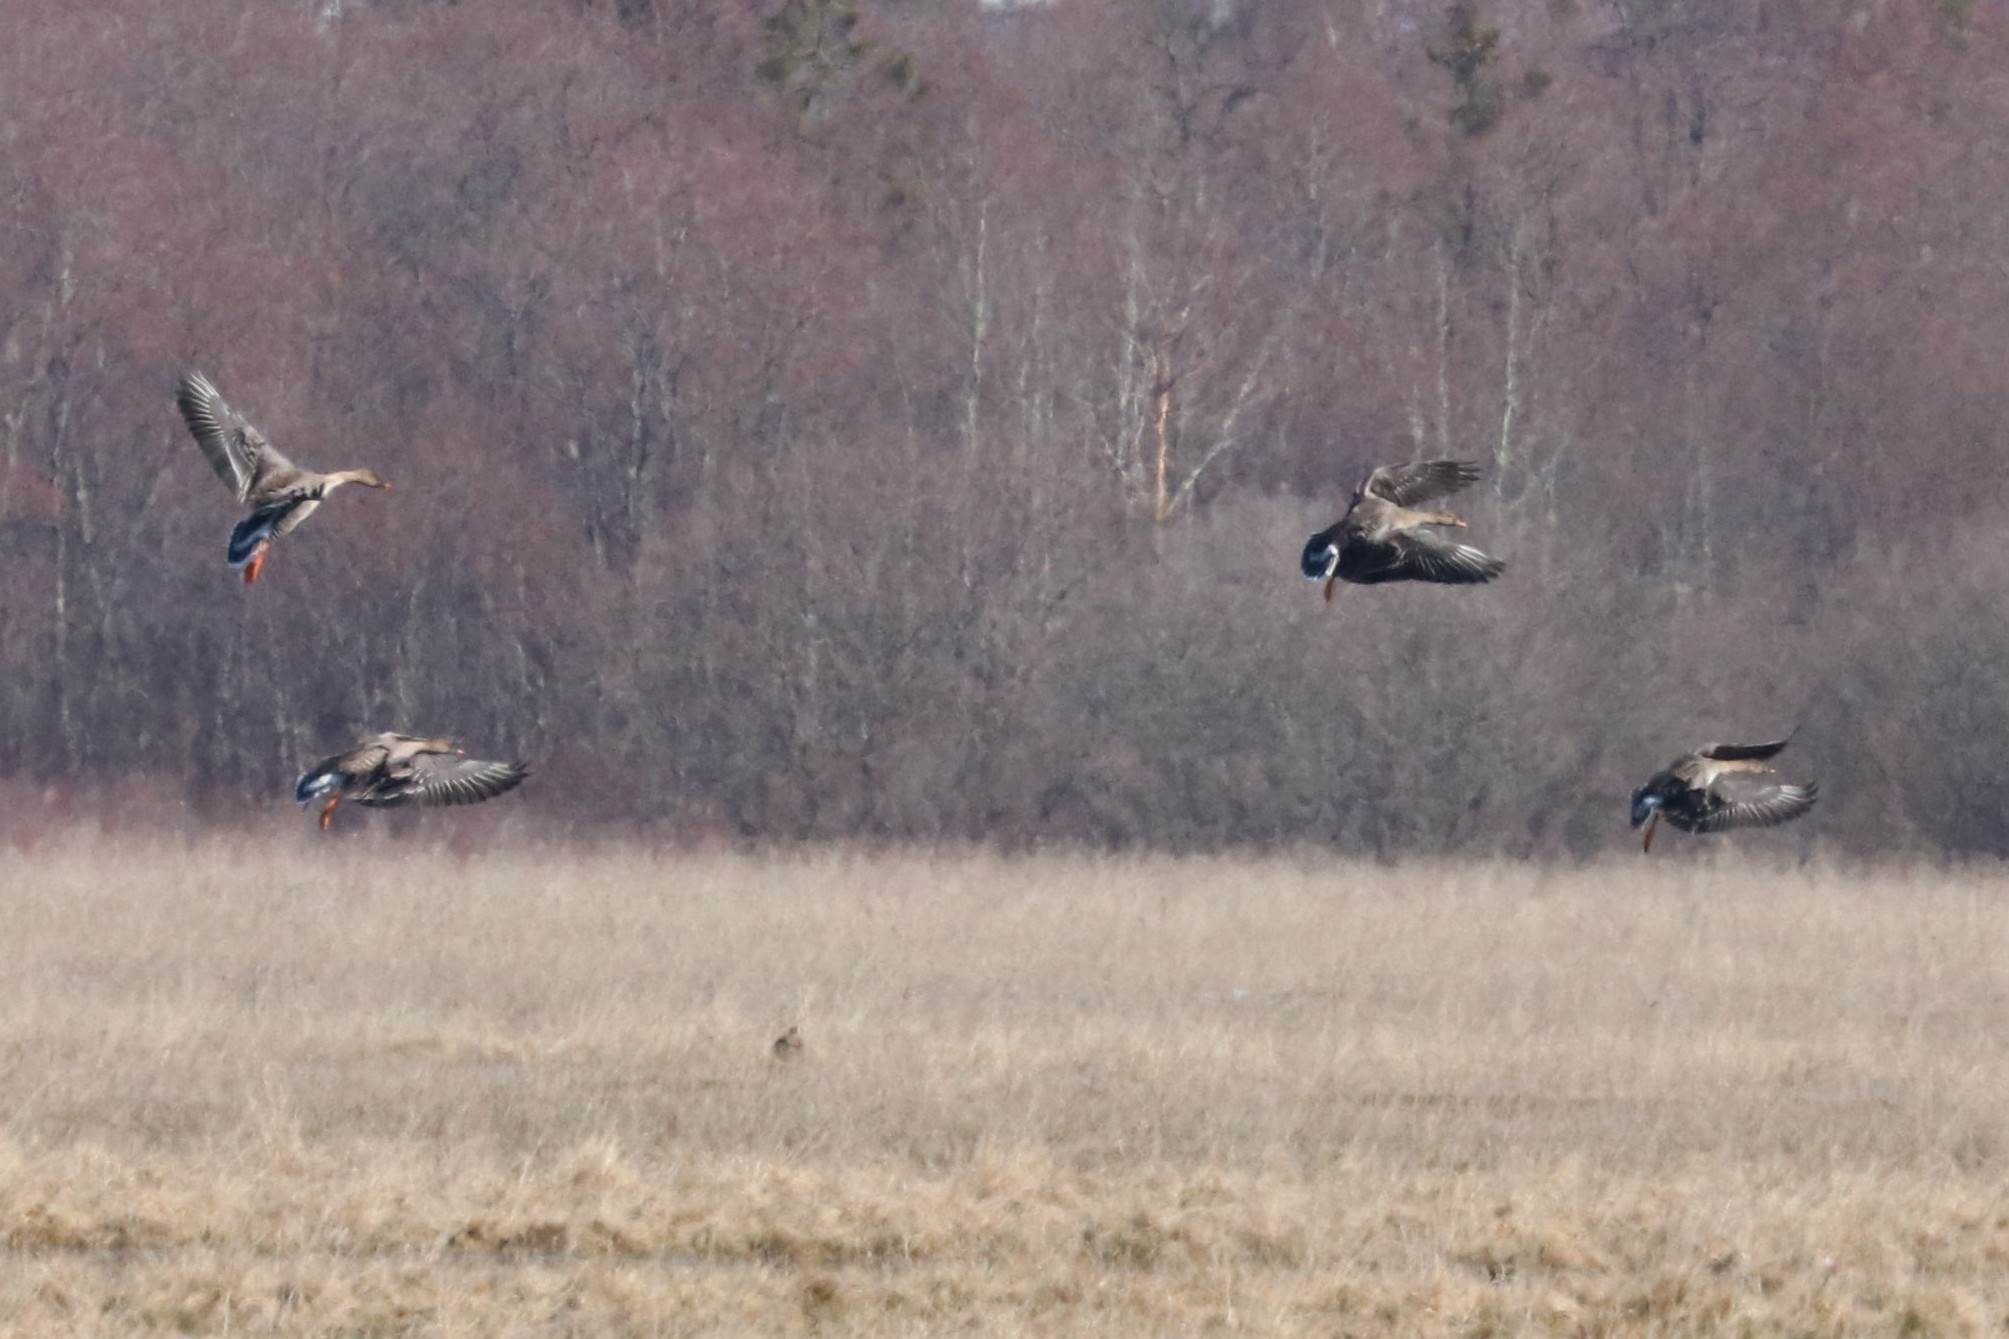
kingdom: Animalia
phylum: Chordata
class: Aves
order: Anseriformes
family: Anatidae
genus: Anser
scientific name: Anser fabalis
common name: Bean goose
